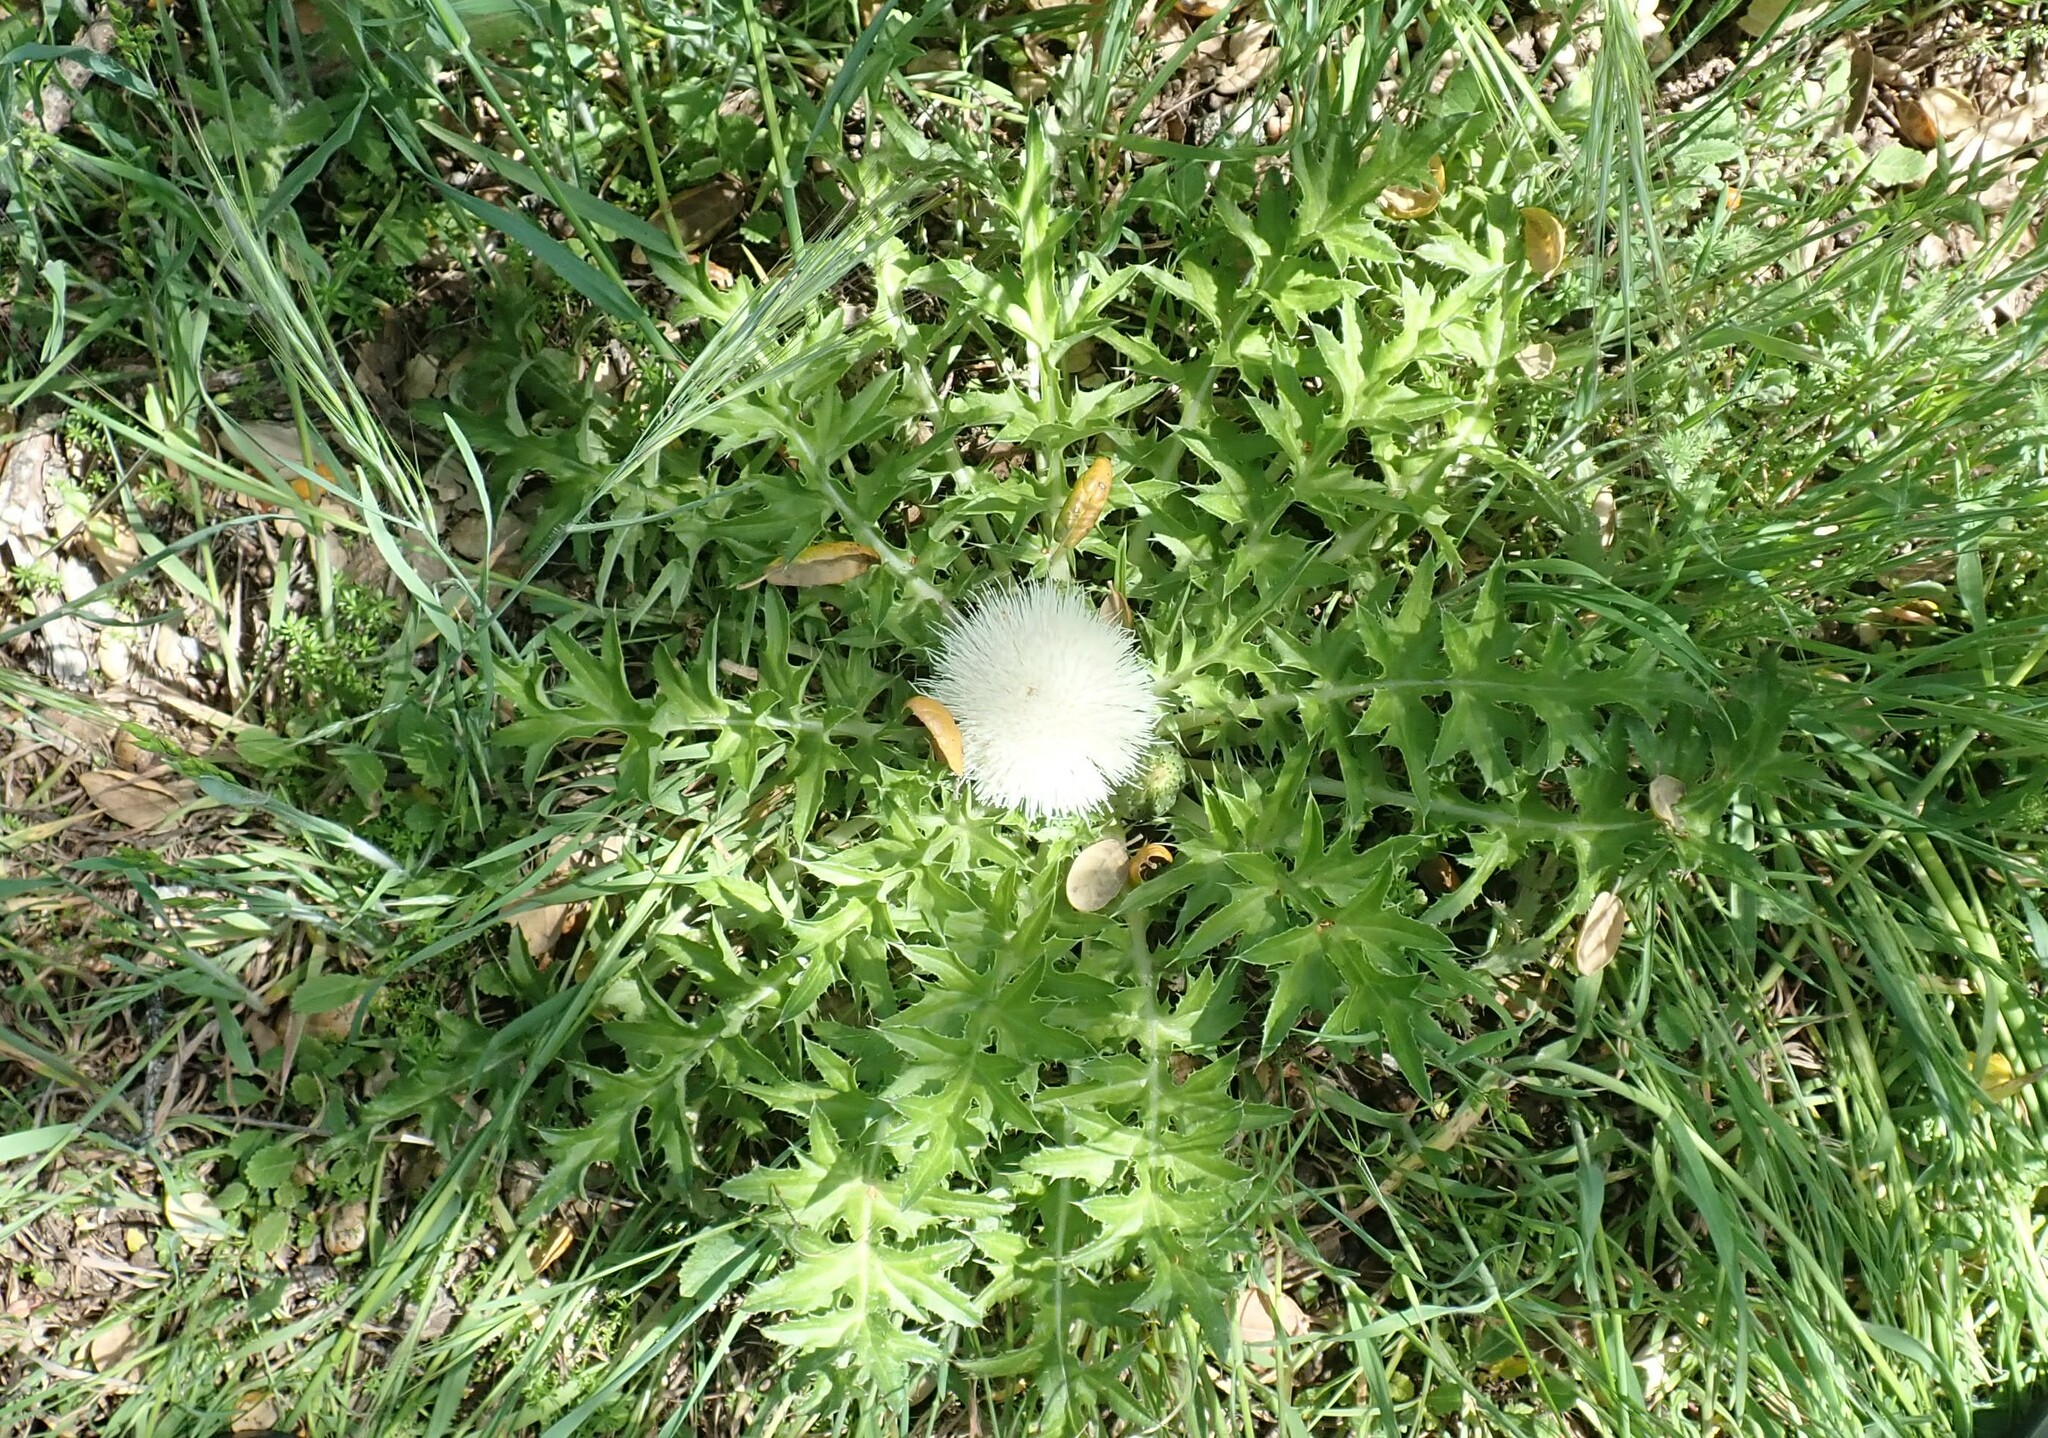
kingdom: Plantae
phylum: Tracheophyta
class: Magnoliopsida
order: Asterales
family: Asteraceae
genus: Cirsium
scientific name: Cirsium scariosum
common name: Meadow thistle
